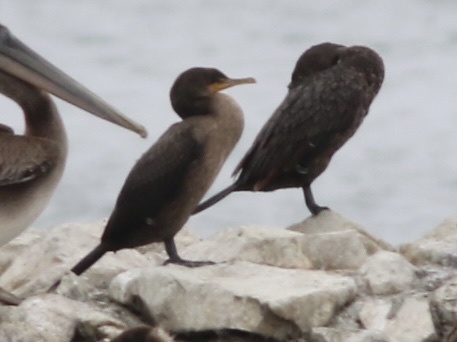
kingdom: Animalia
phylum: Chordata
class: Aves
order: Suliformes
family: Phalacrocoracidae
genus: Phalacrocorax
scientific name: Phalacrocorax auritus
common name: Double-crested cormorant
